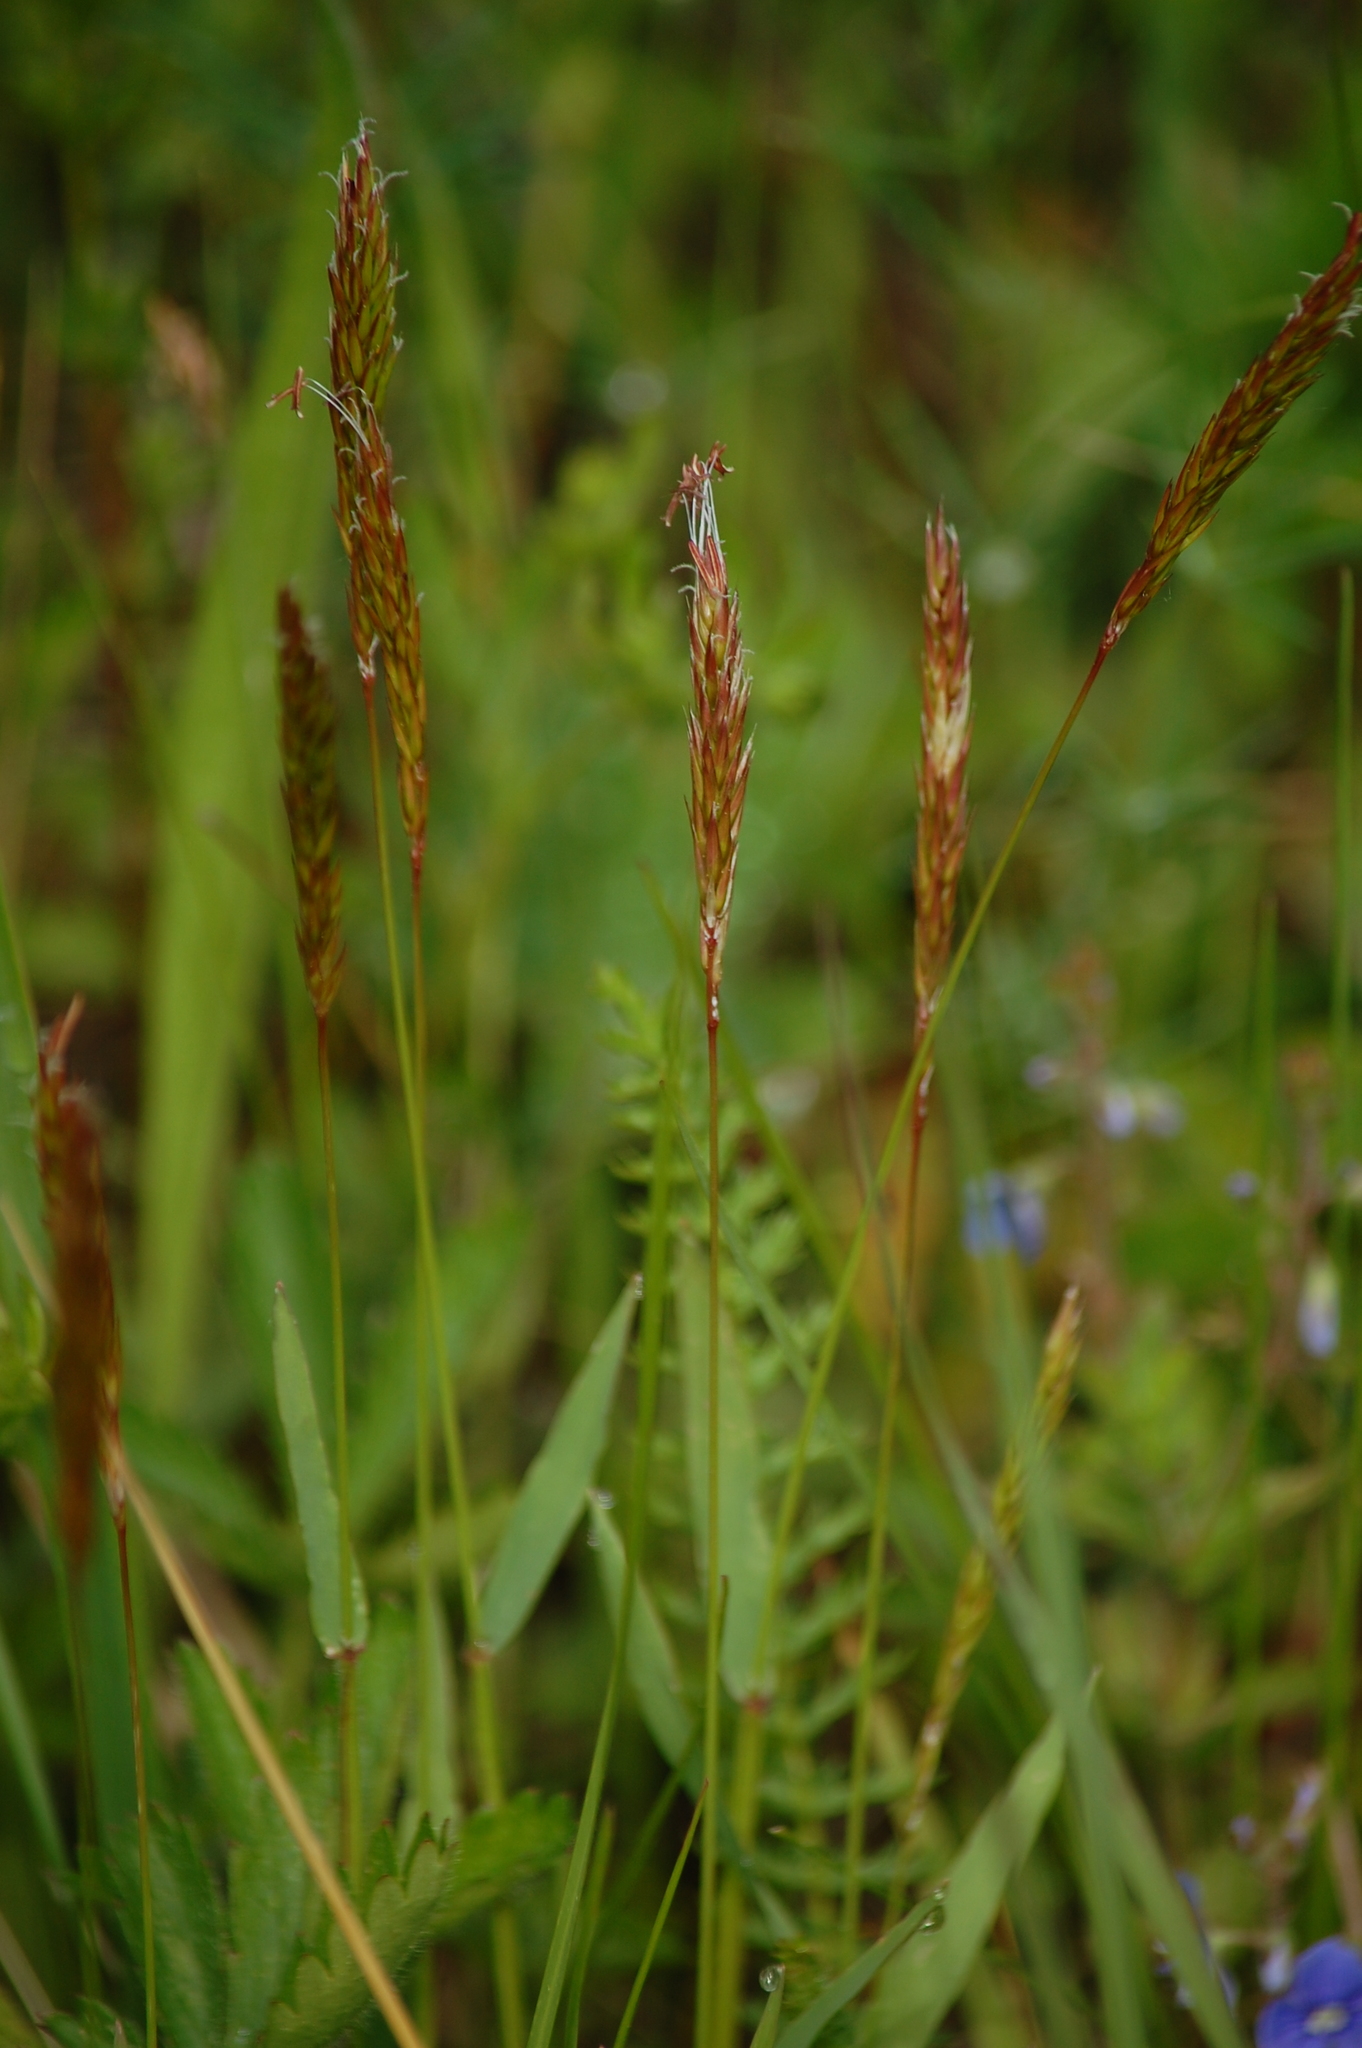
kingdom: Plantae
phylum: Tracheophyta
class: Liliopsida
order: Poales
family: Poaceae
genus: Anthoxanthum
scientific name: Anthoxanthum odoratum
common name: Sweet vernalgrass
